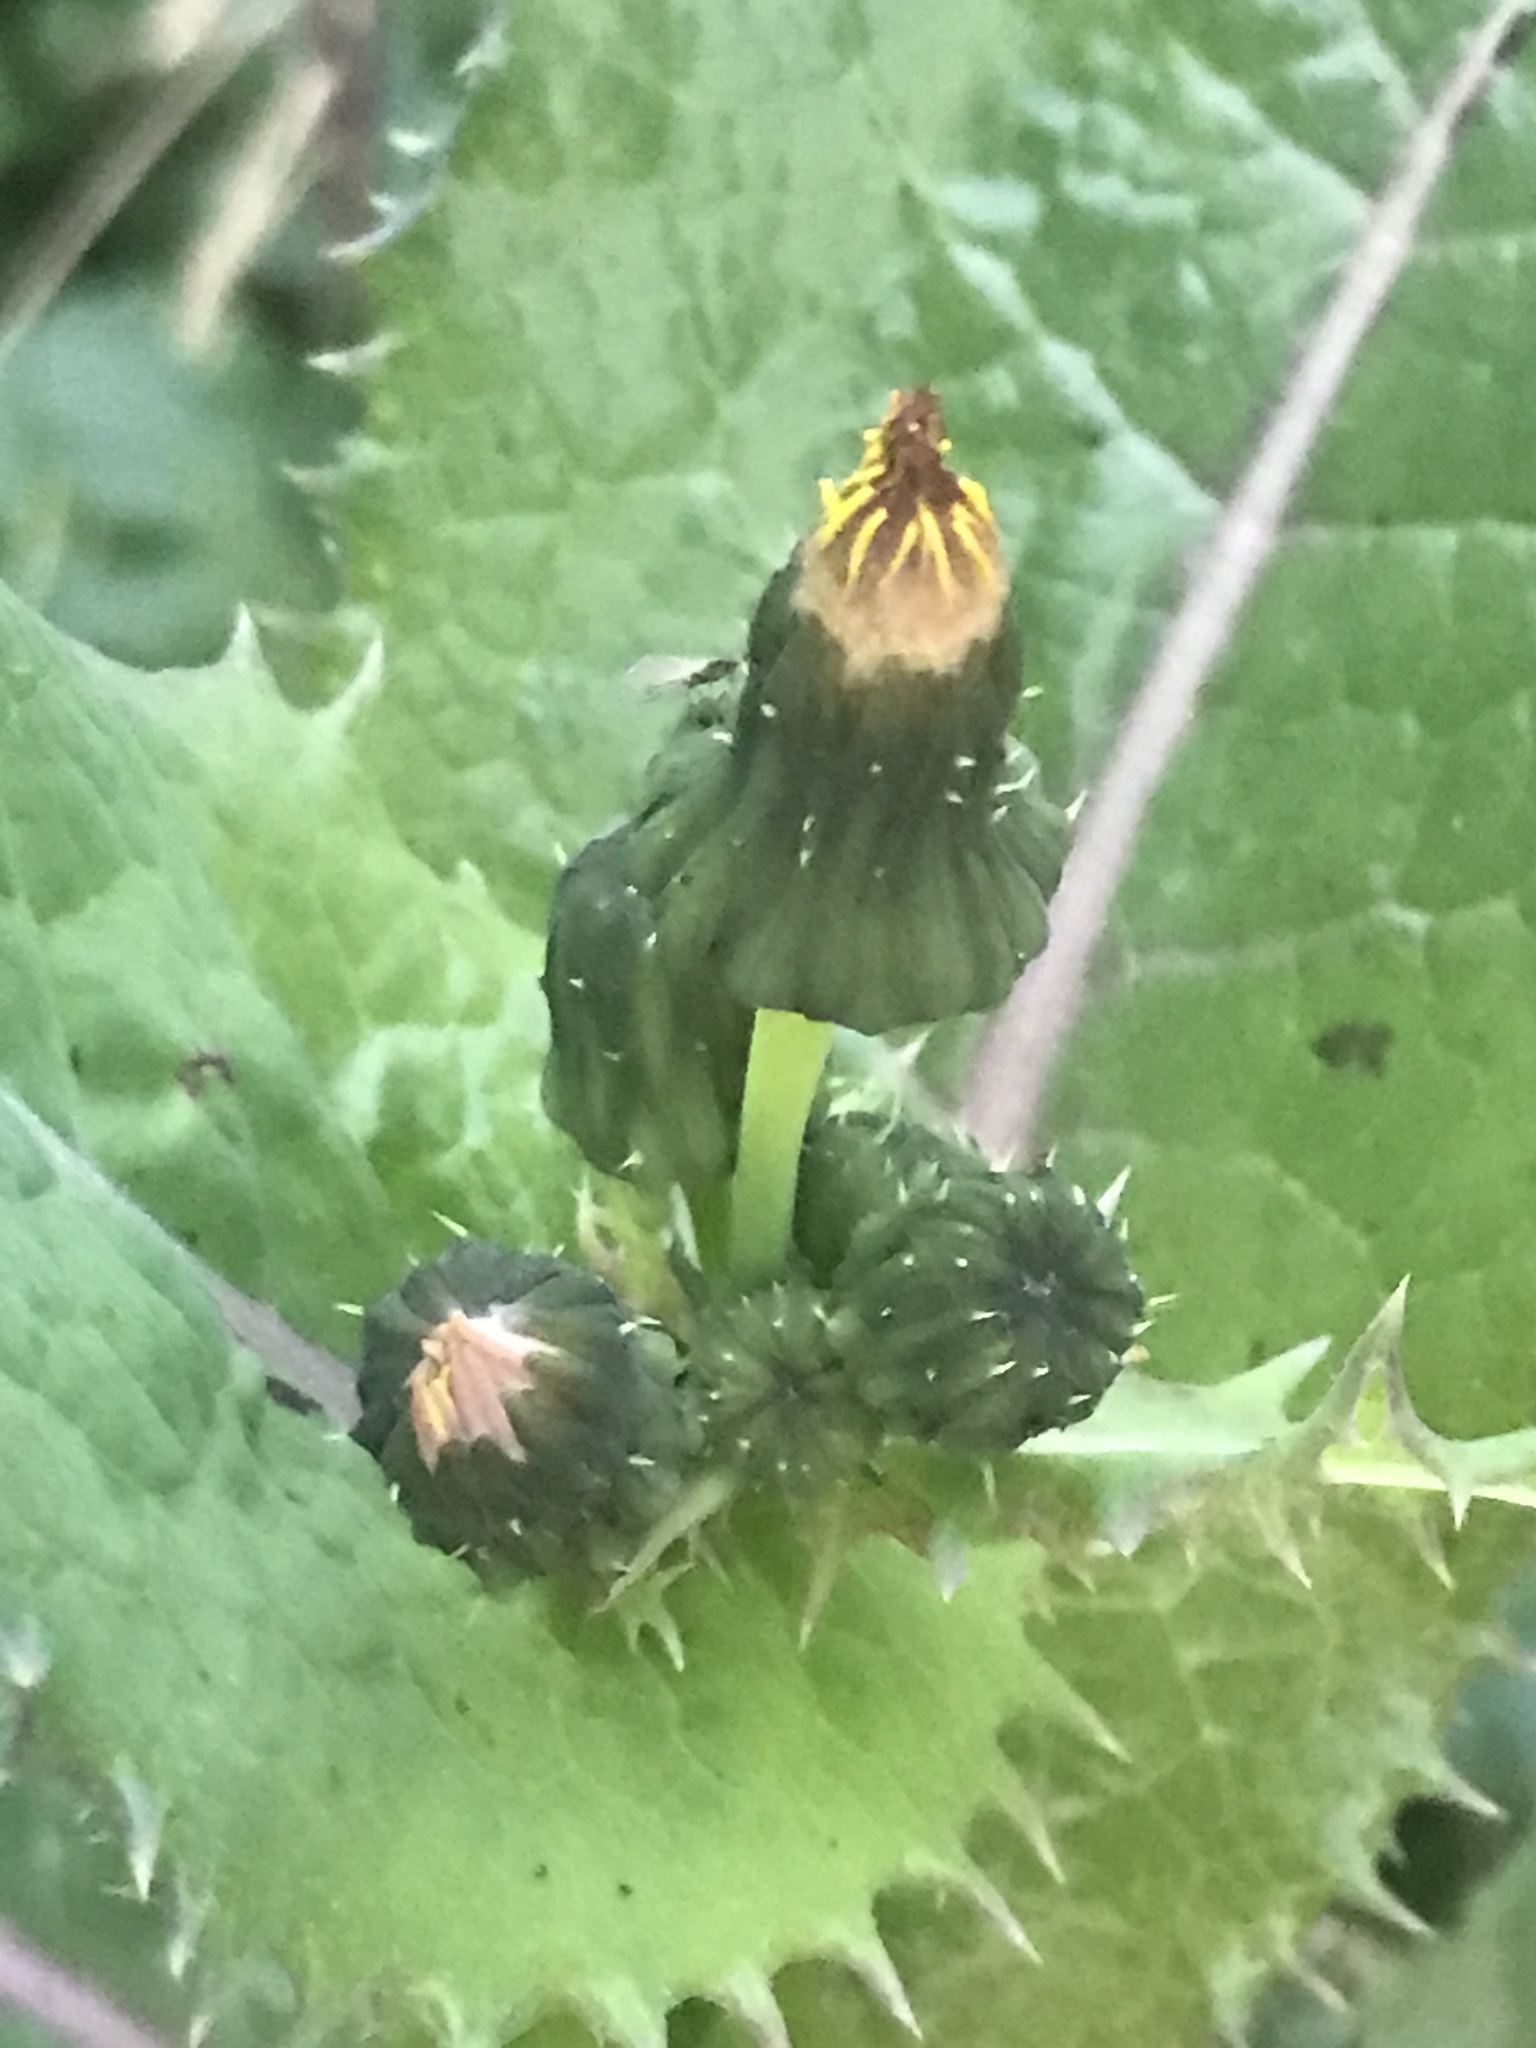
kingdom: Plantae
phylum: Tracheophyta
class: Magnoliopsida
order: Asterales
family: Asteraceae
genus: Sonchus
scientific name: Sonchus asper
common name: Prickly sow-thistle
